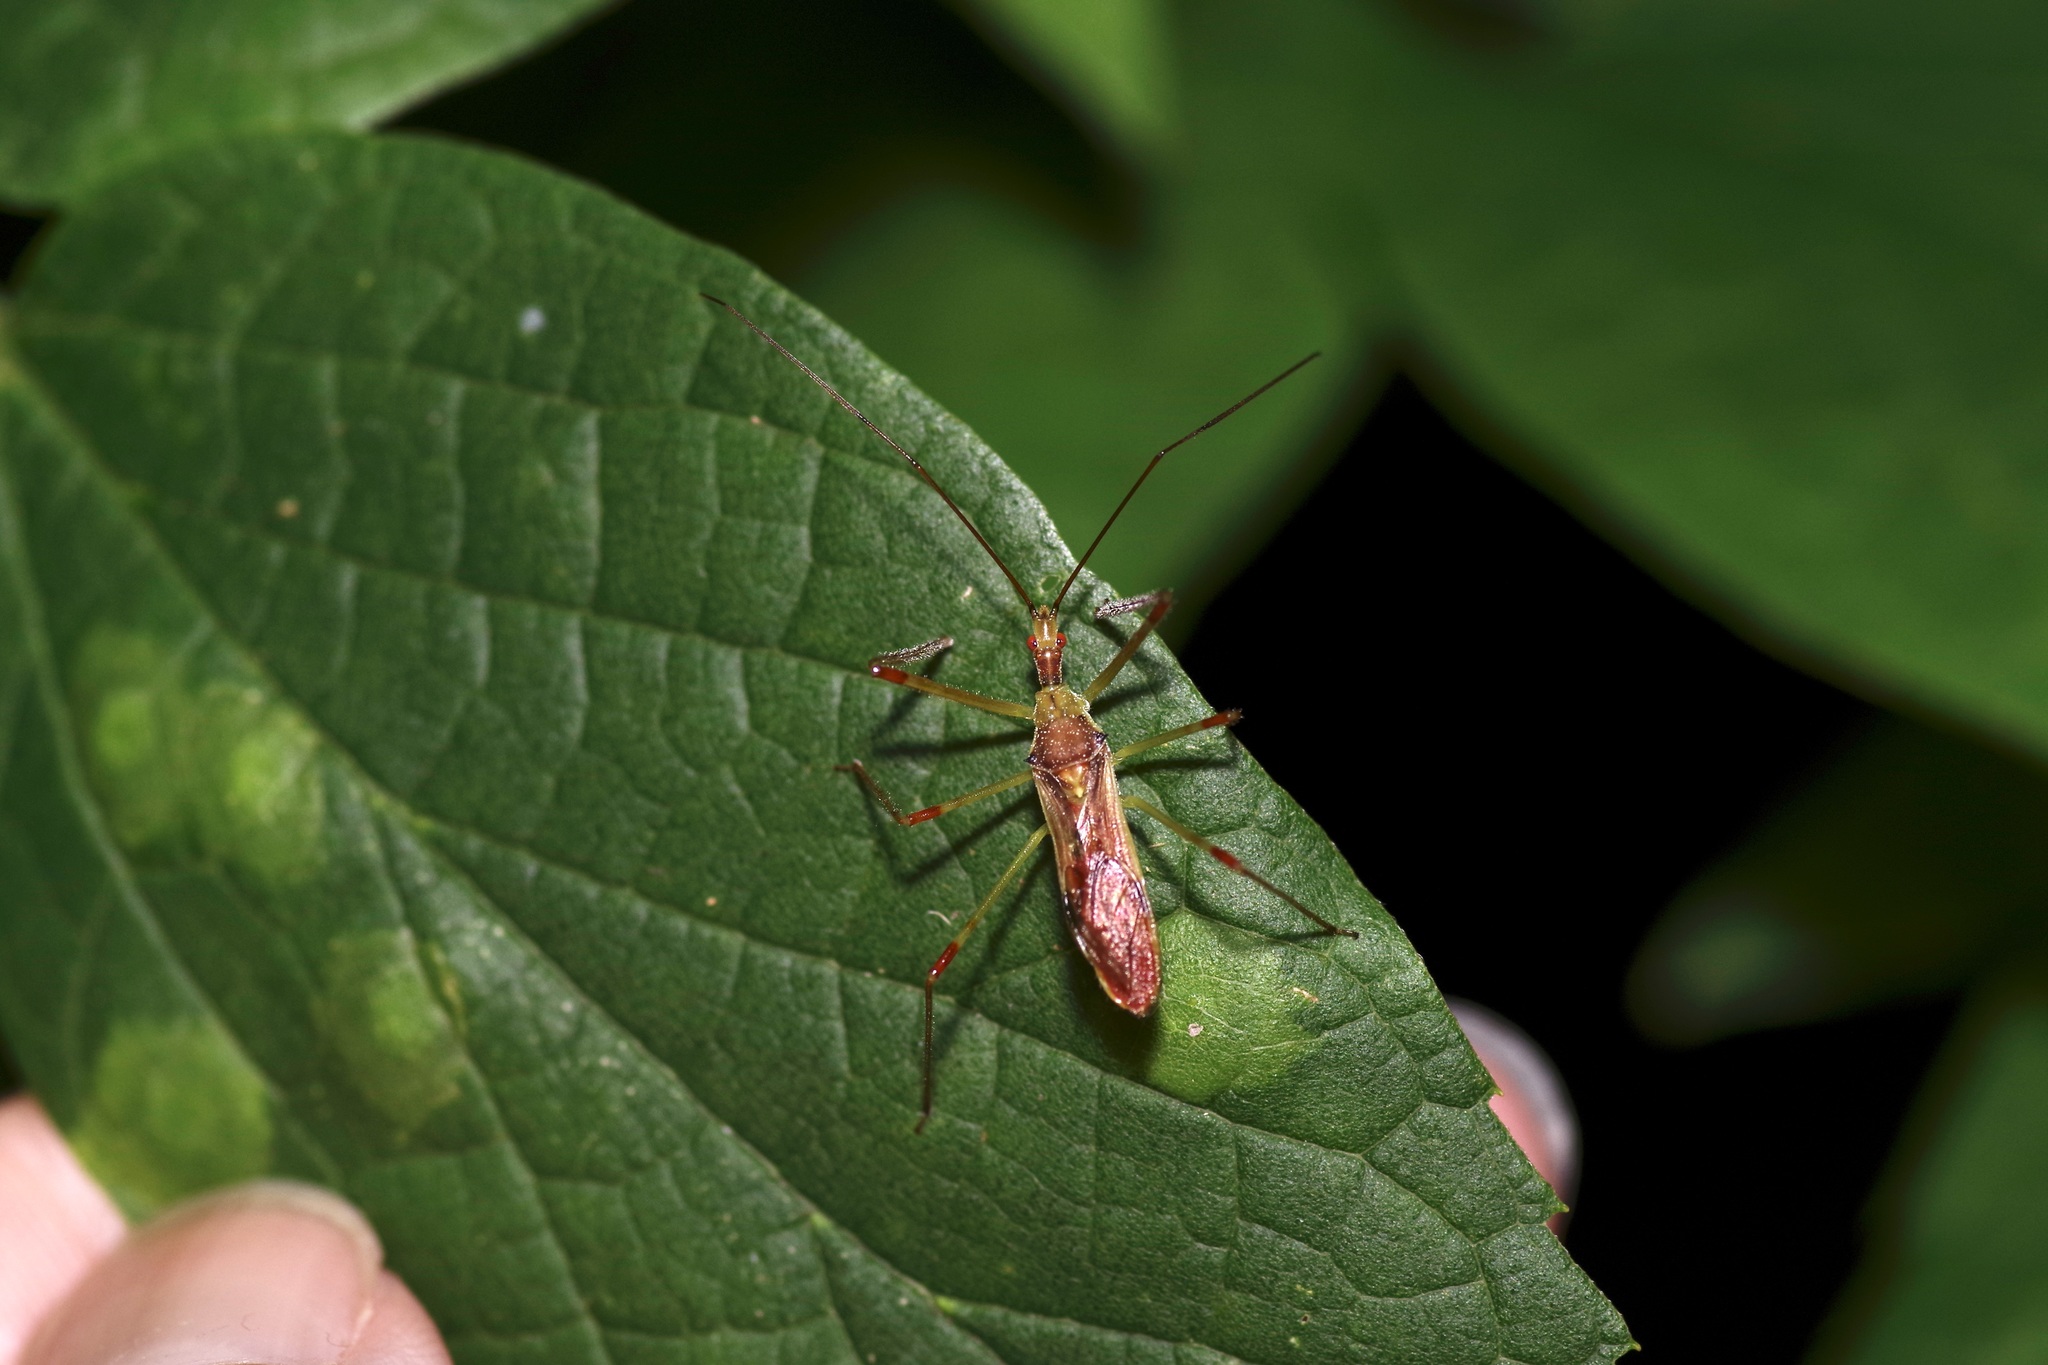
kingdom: Animalia
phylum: Arthropoda
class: Insecta
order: Hemiptera
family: Reduviidae
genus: Zelus
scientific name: Zelus luridus
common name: Pale green assassin bug
